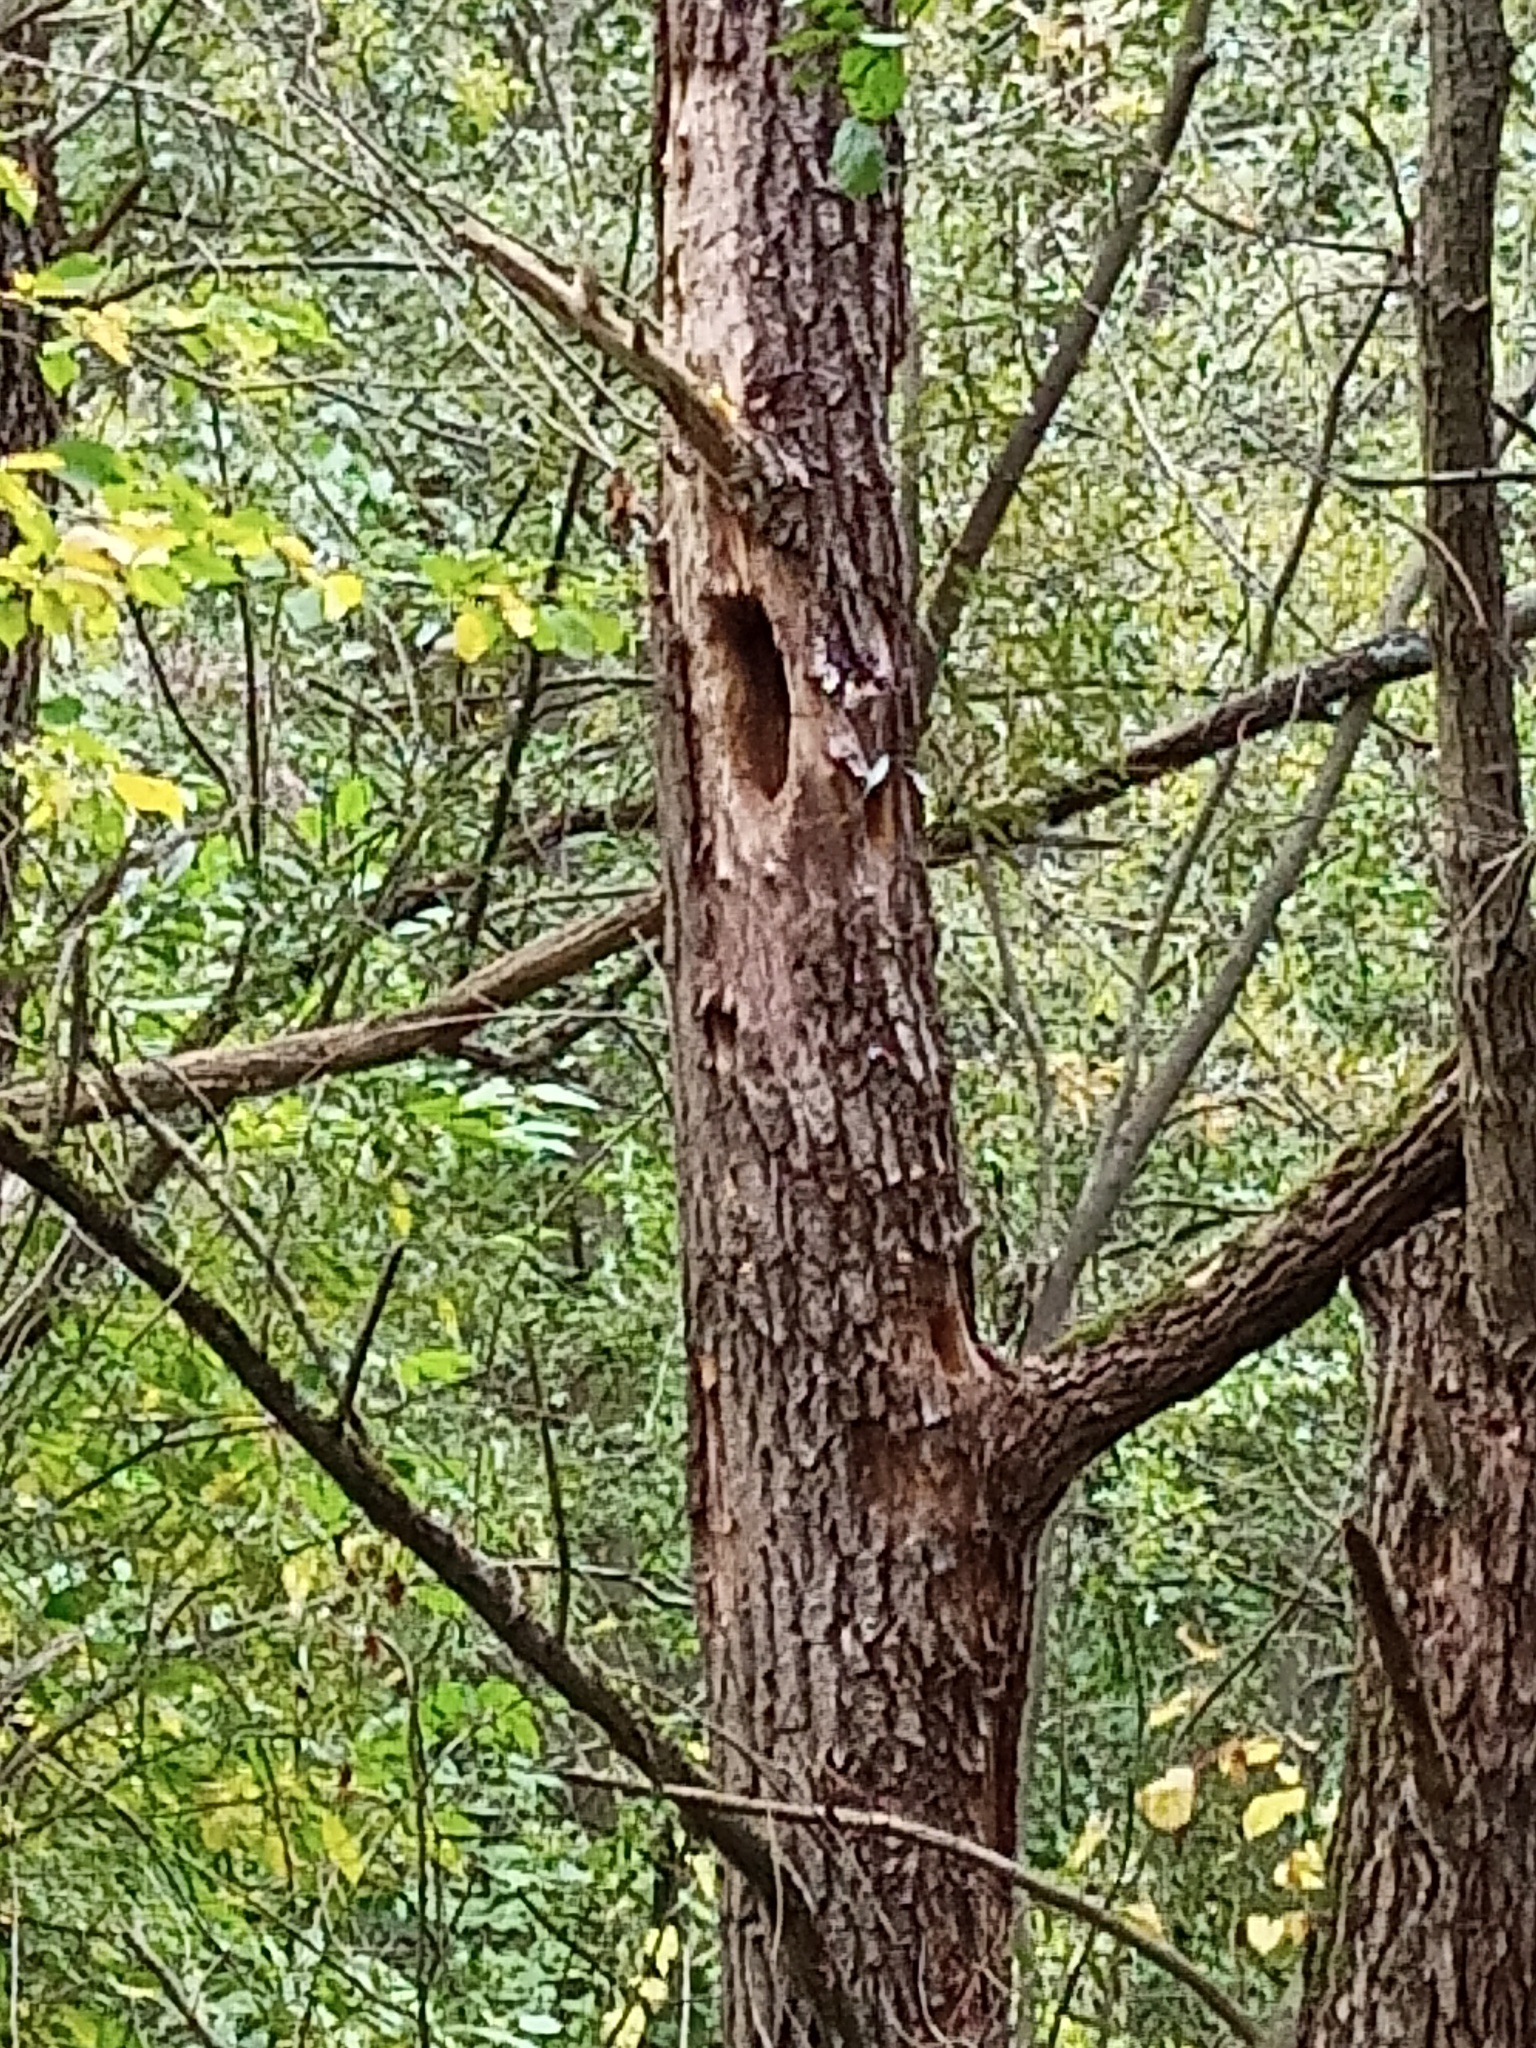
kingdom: Animalia
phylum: Chordata
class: Aves
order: Piciformes
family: Picidae
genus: Dryocopus
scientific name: Dryocopus martius
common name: Black woodpecker
